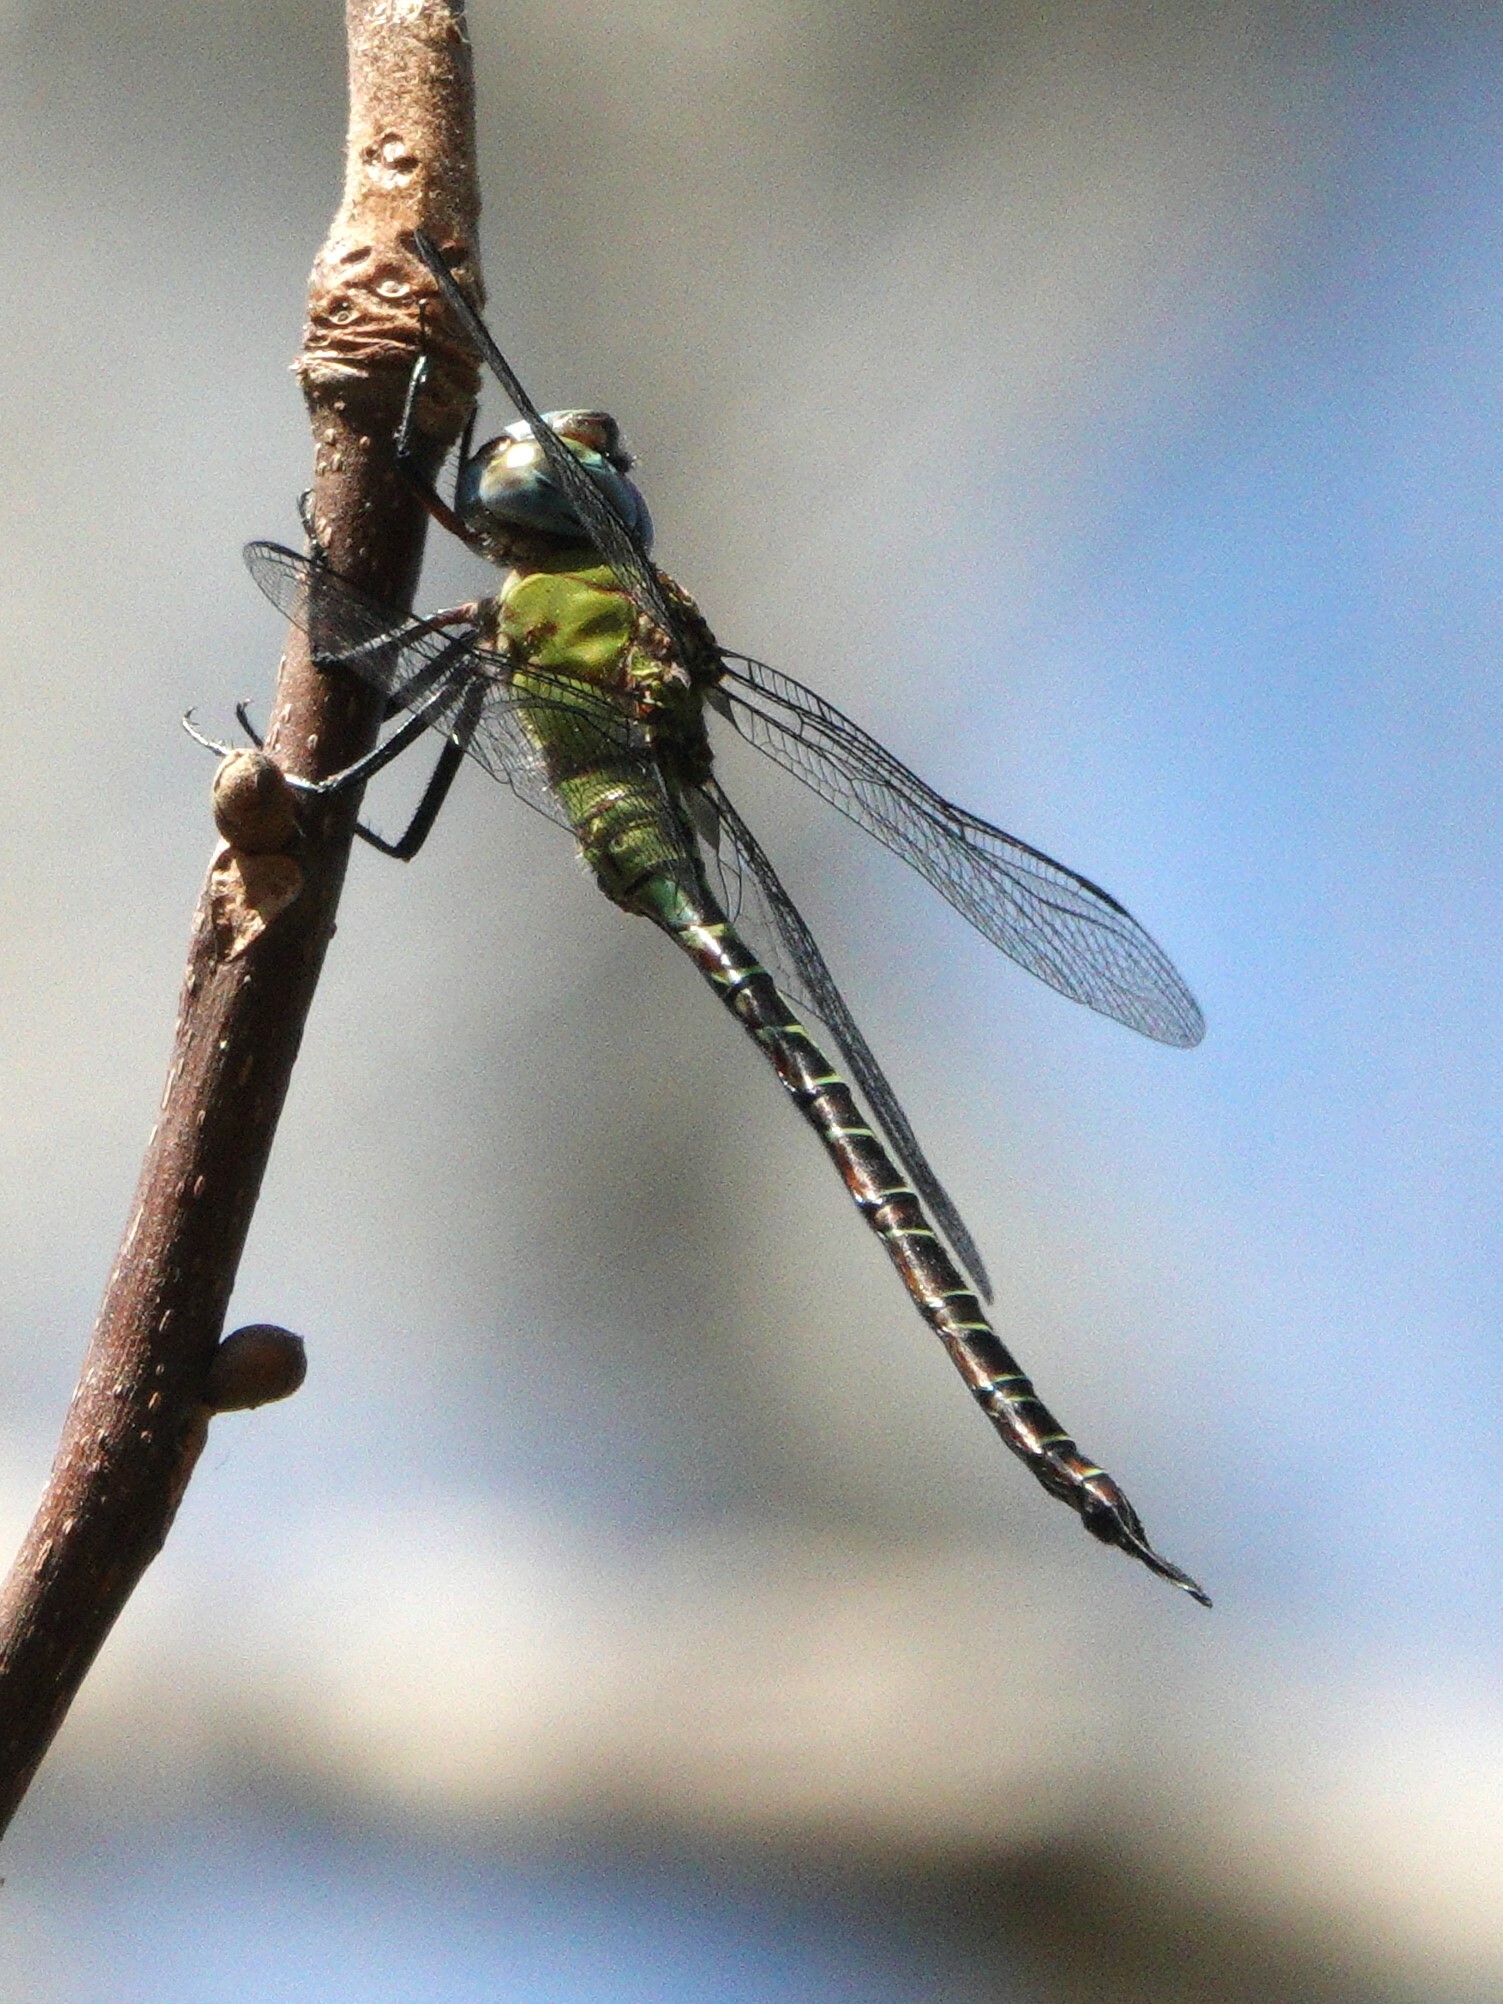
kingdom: Animalia
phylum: Arthropoda
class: Insecta
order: Odonata
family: Aeshnidae
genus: Coryphaeschna
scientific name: Coryphaeschna adnexa
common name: Blue-faced darner
